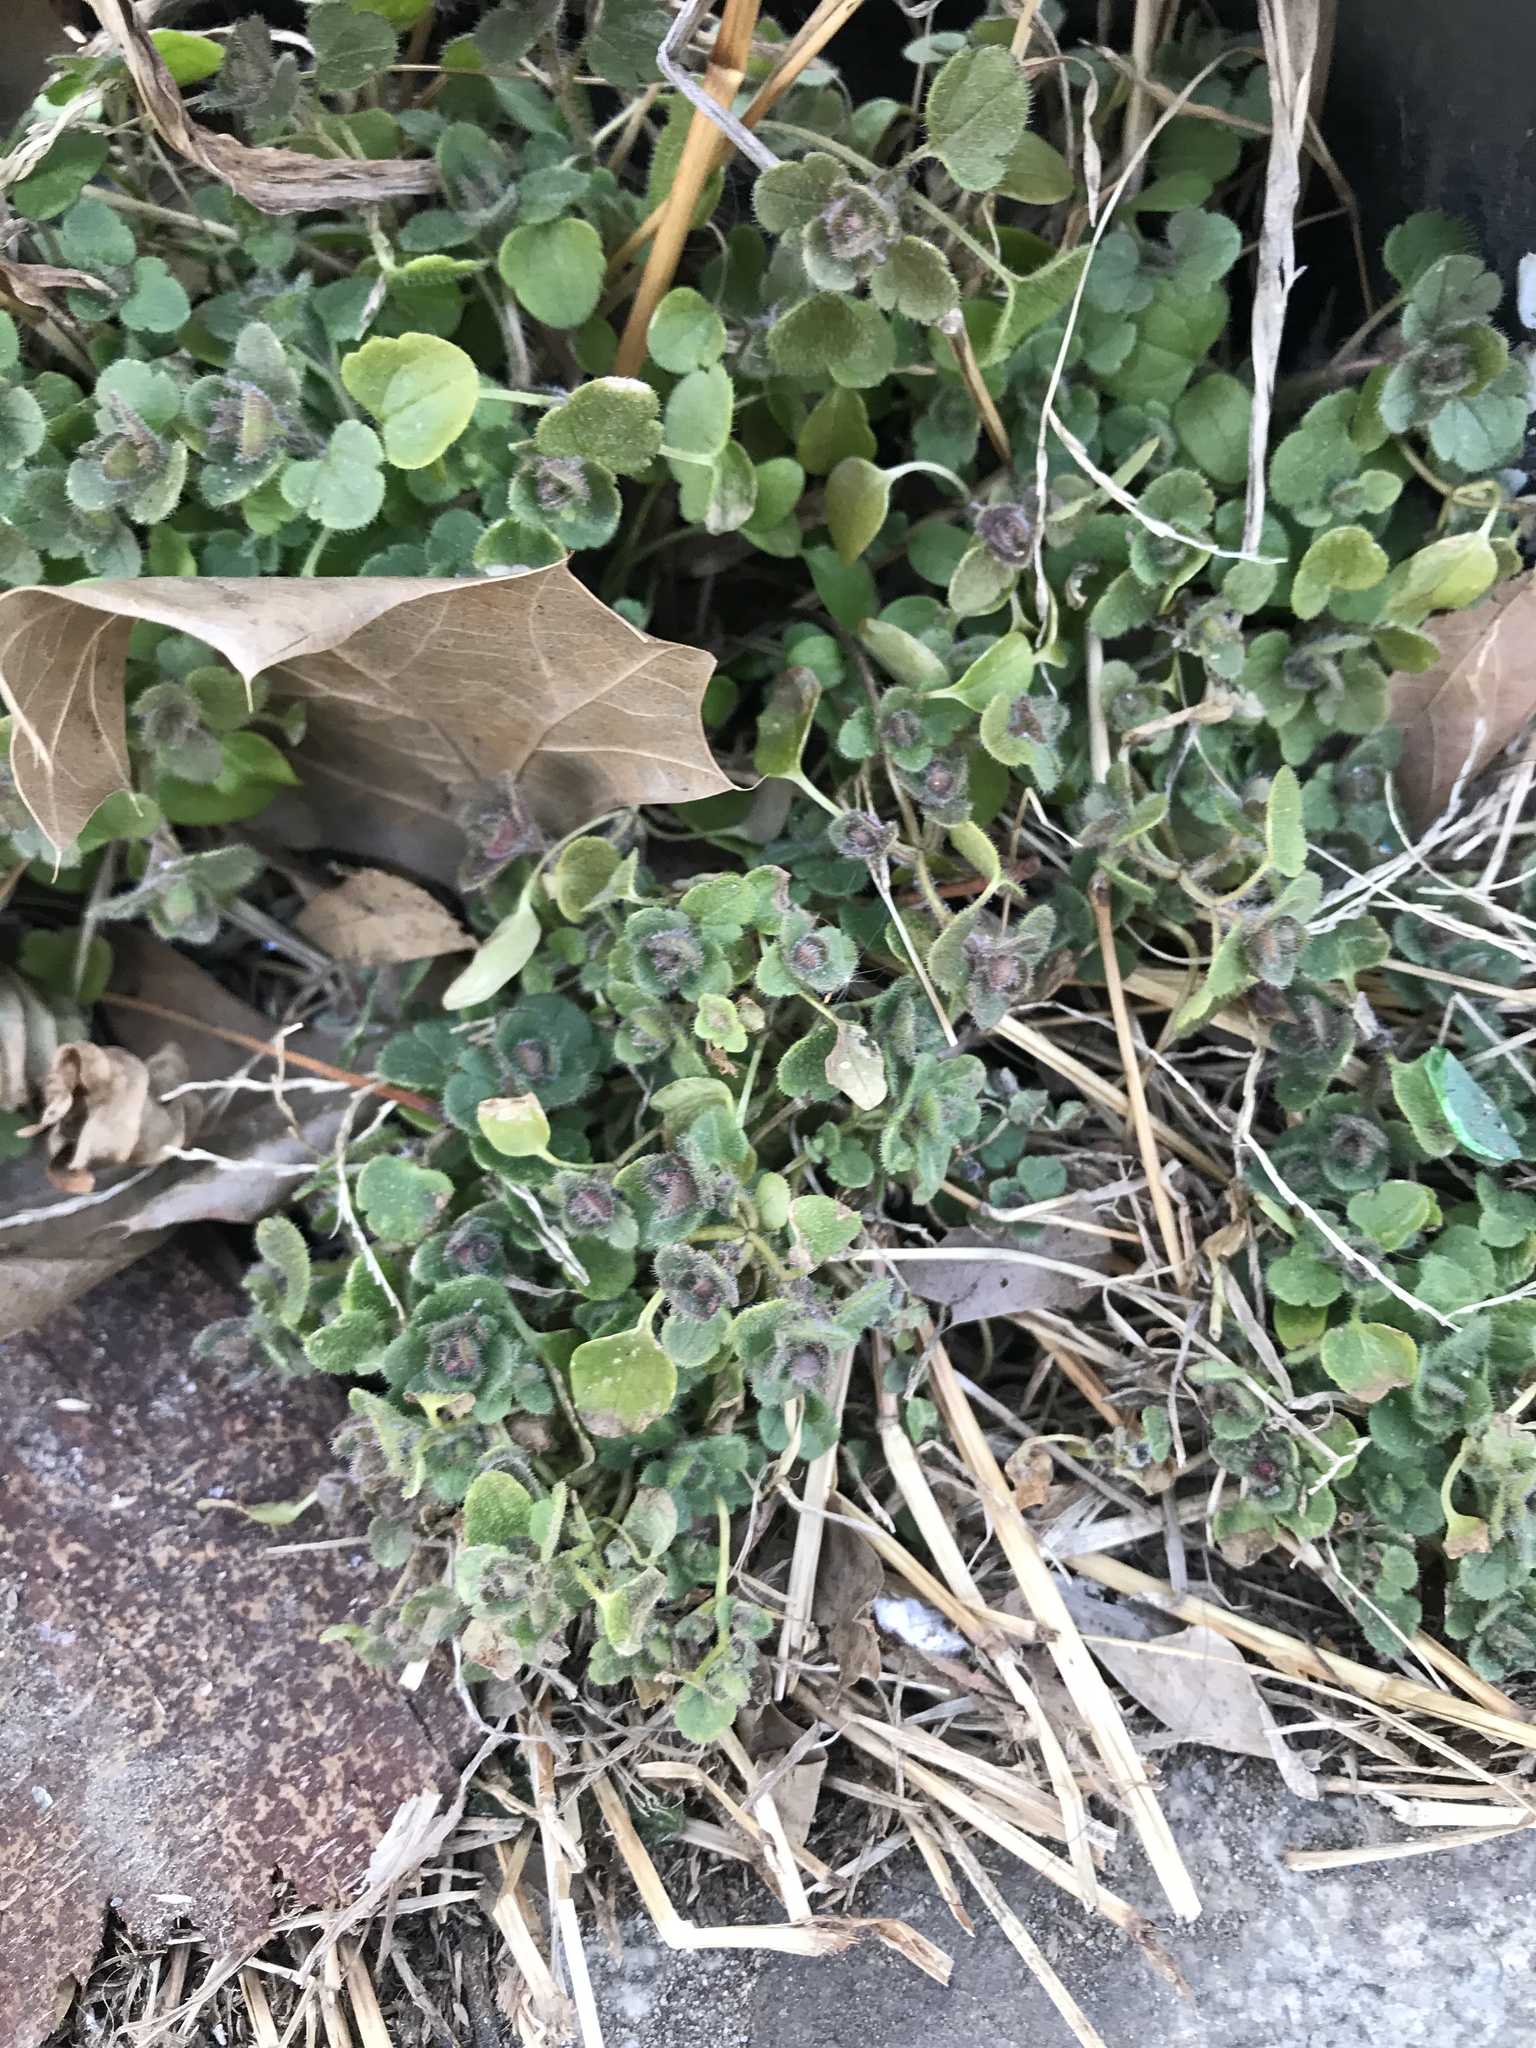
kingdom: Plantae
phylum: Tracheophyta
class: Magnoliopsida
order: Lamiales
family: Plantaginaceae
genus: Veronica
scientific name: Veronica
